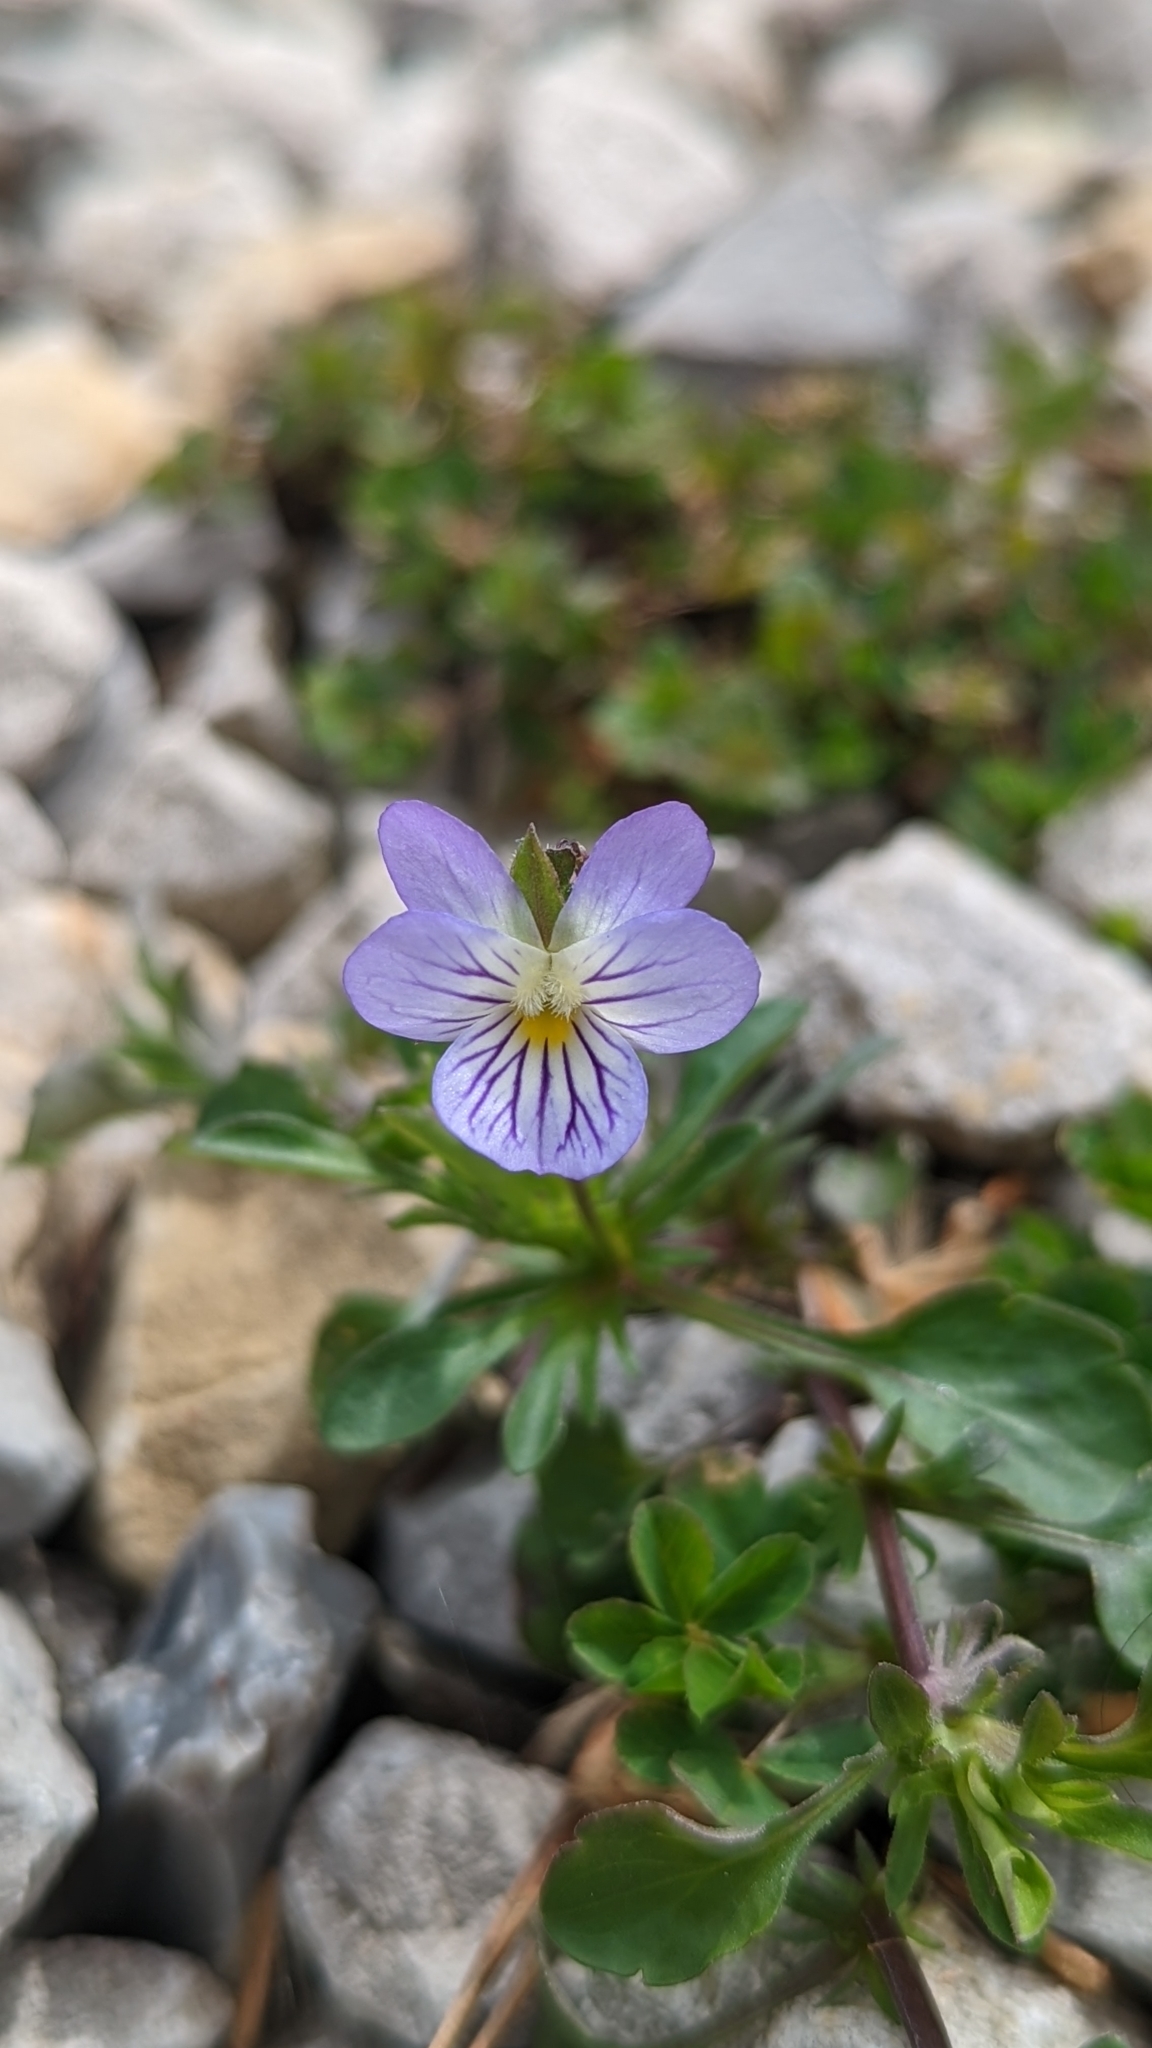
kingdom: Plantae
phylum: Tracheophyta
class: Magnoliopsida
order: Malpighiales
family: Violaceae
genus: Viola
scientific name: Viola rafinesquei
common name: American field pansy
